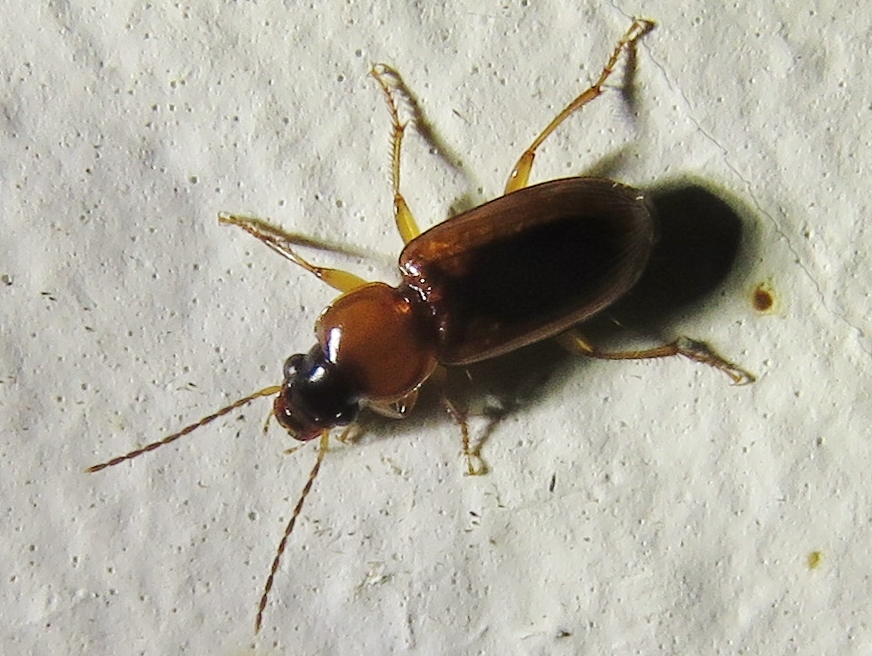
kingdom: Animalia
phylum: Arthropoda
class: Insecta
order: Coleoptera
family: Carabidae
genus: Stenolophus
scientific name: Stenolophus dissimilis
